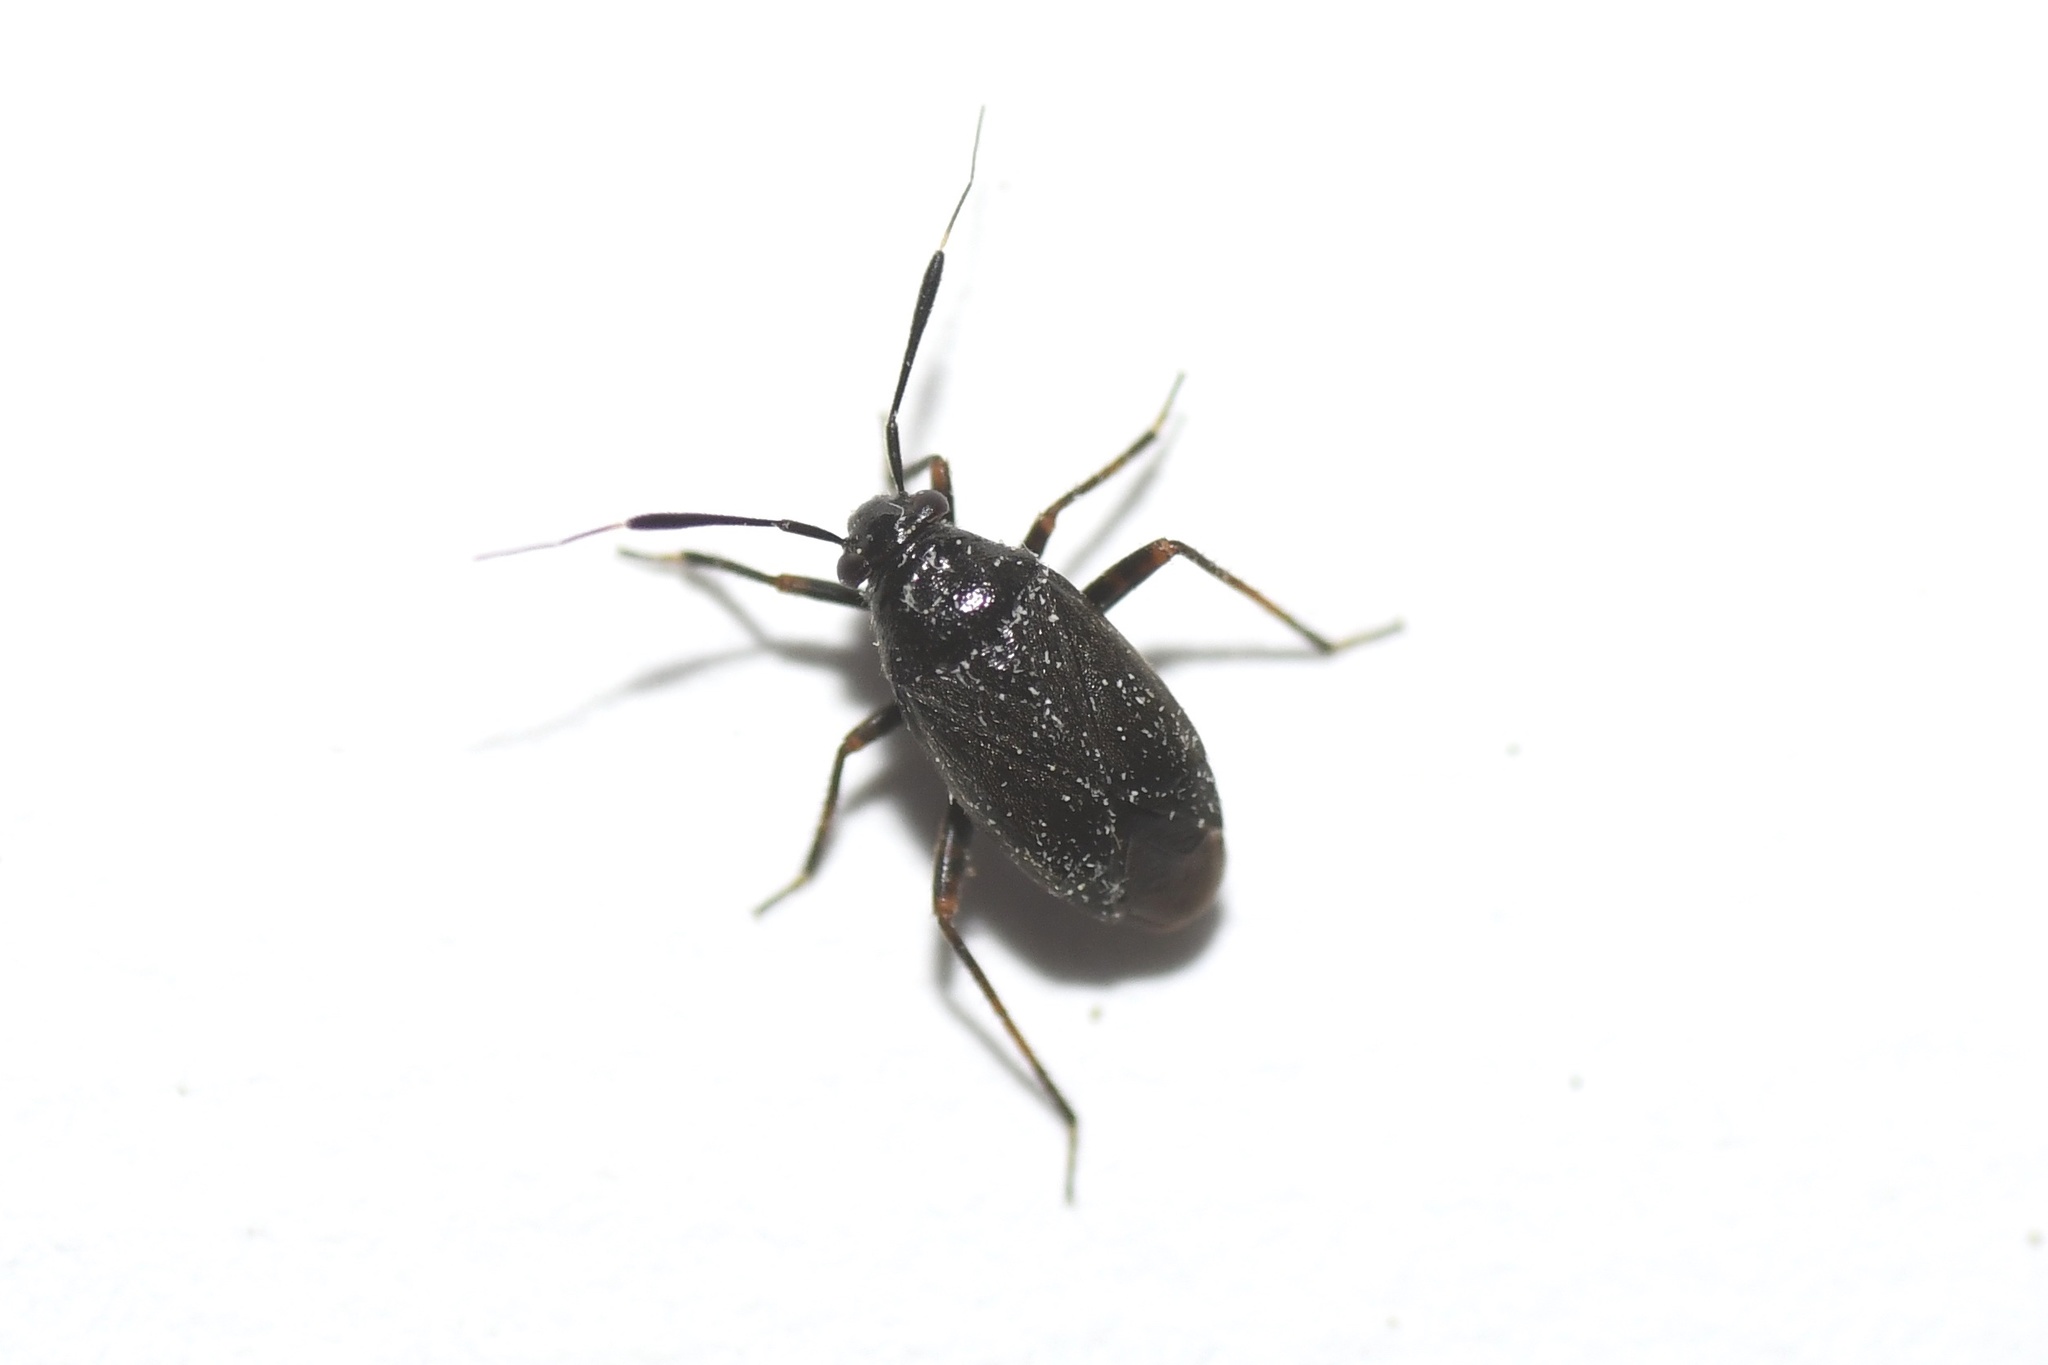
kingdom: Animalia
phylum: Arthropoda
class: Insecta
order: Hemiptera
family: Miridae
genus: Orthocephalus
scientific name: Orthocephalus saltator
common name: Plant bug
